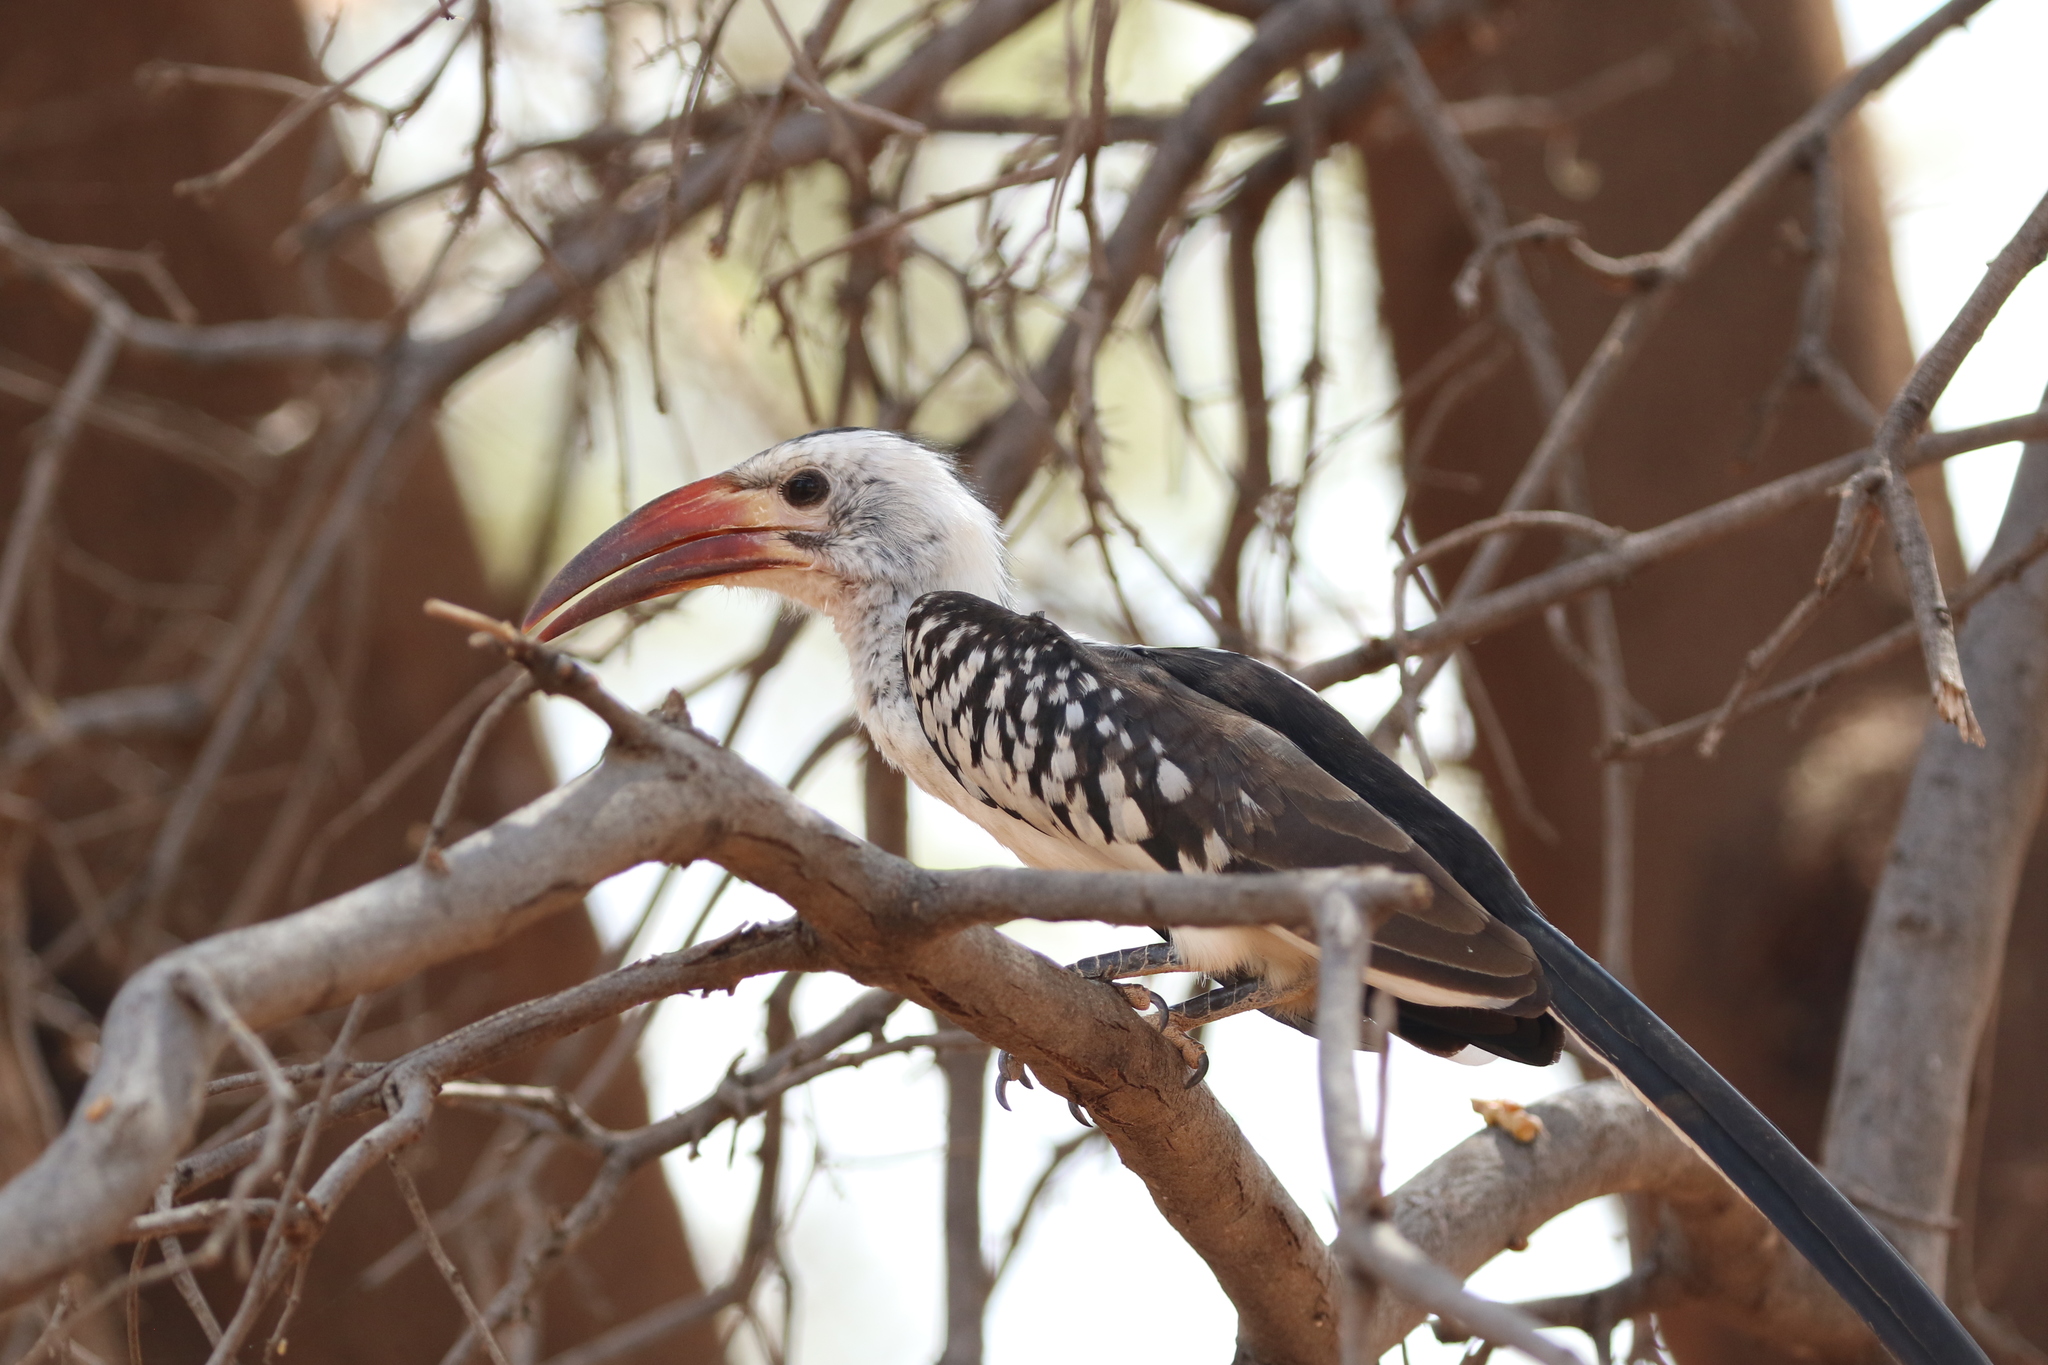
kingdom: Animalia
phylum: Chordata
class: Aves
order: Bucerotiformes
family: Bucerotidae
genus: Tockus
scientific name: Tockus erythrorhynchus
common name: Northern red-billed hornbill
